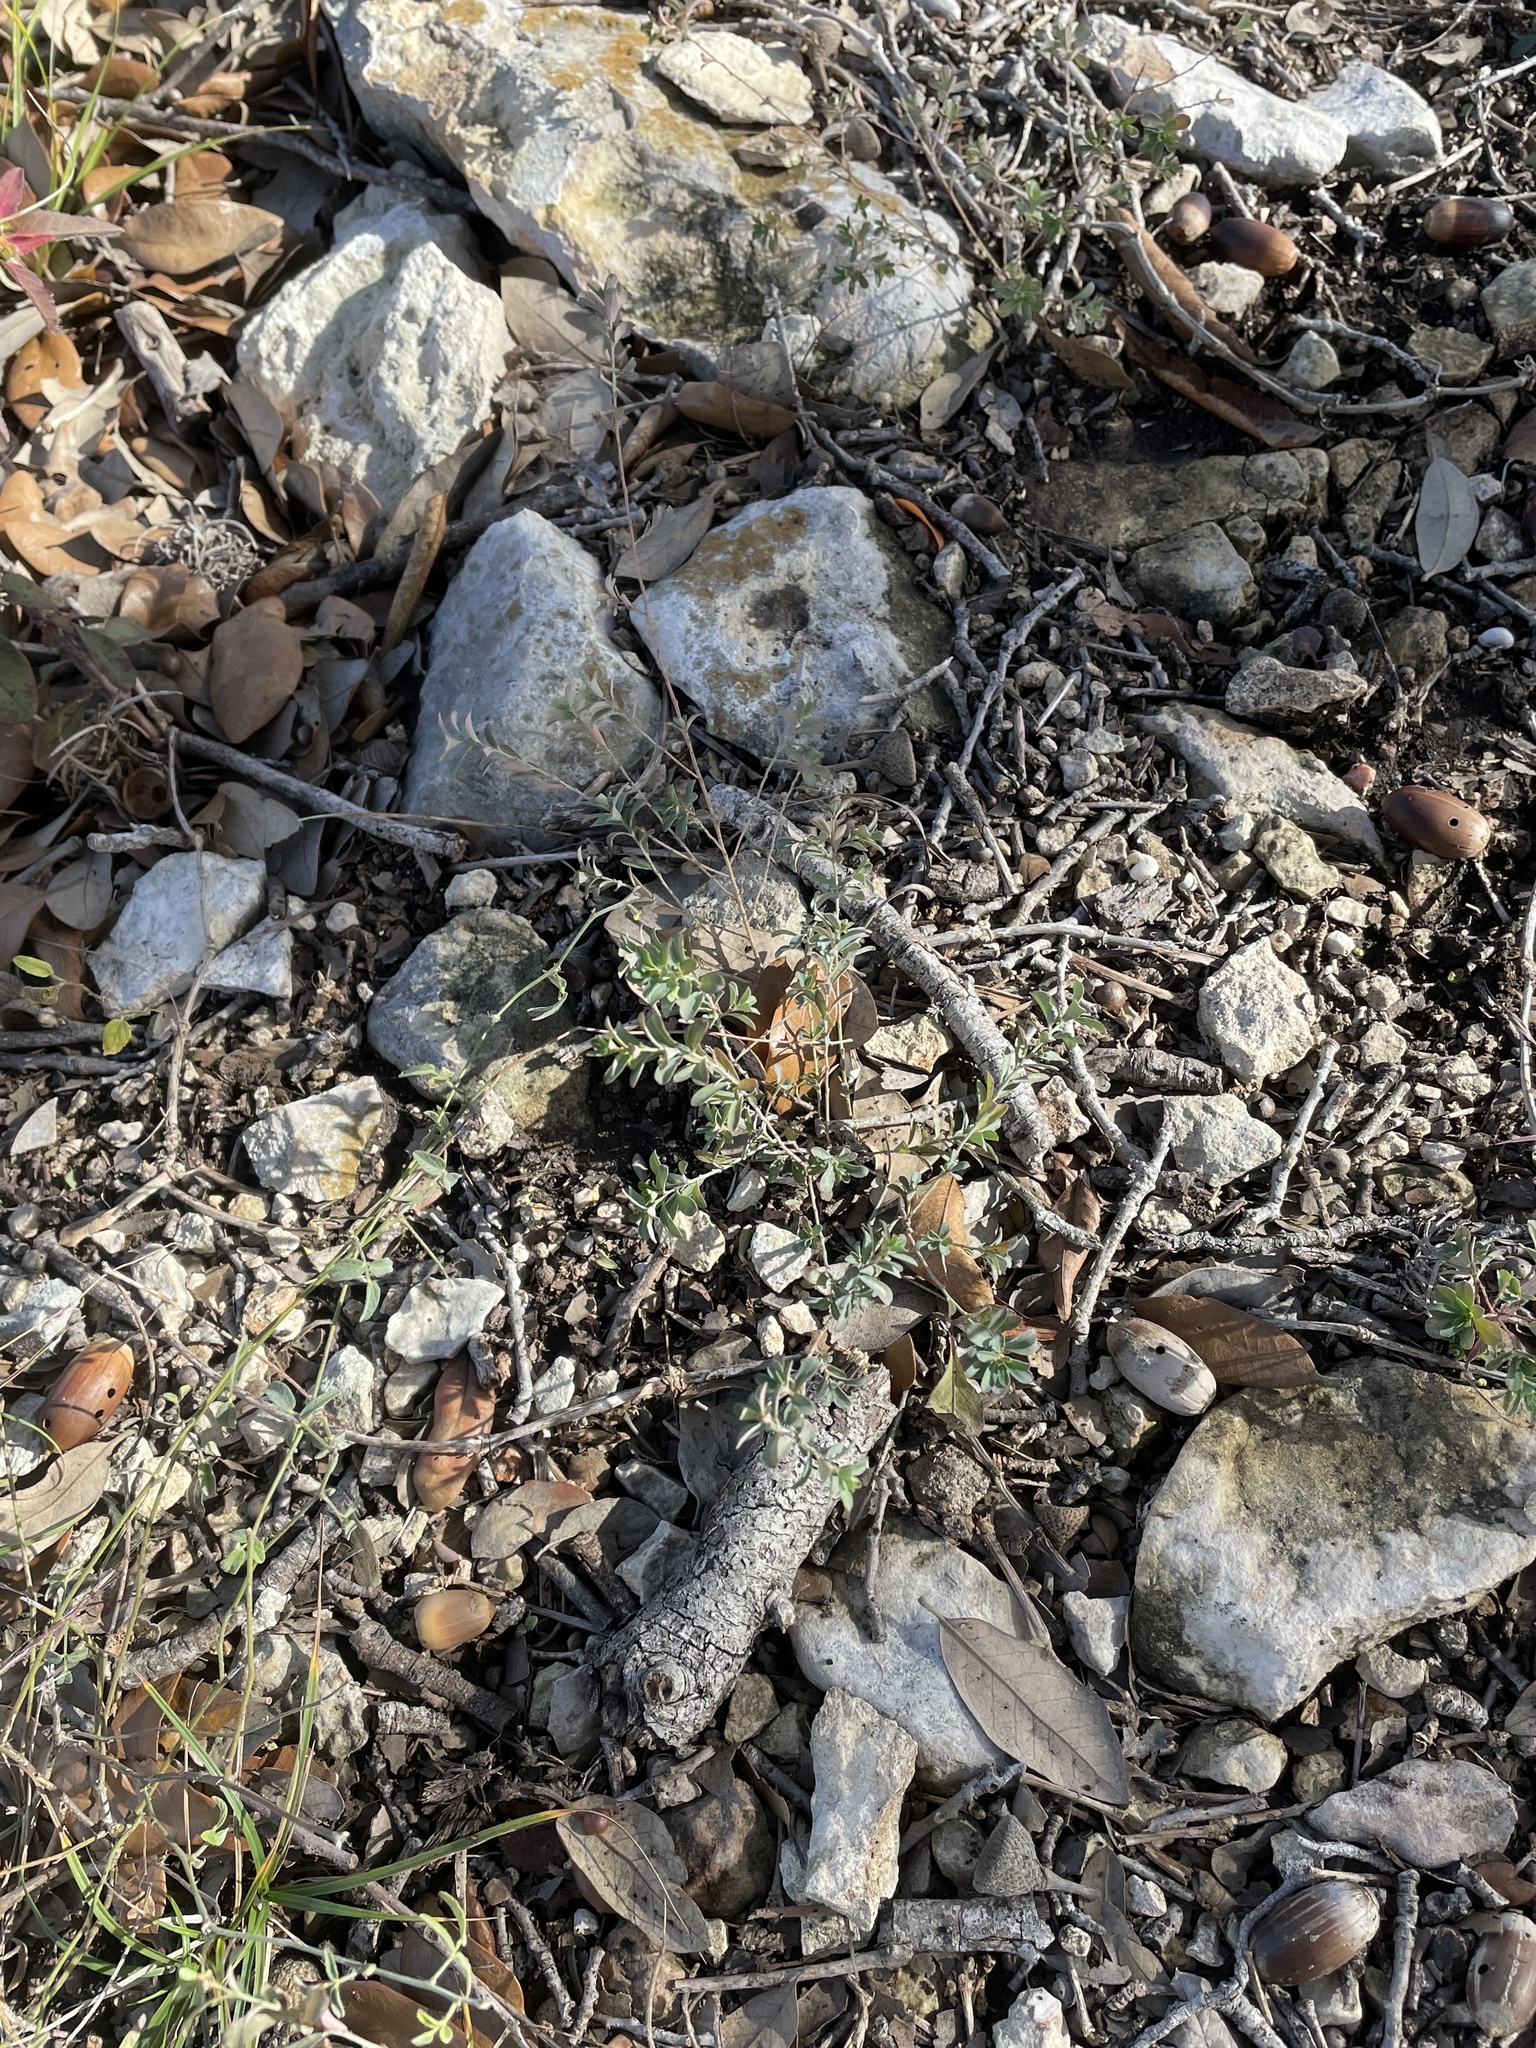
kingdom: Plantae
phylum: Tracheophyta
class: Magnoliopsida
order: Malpighiales
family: Phyllanthaceae
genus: Phyllanthus
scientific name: Phyllanthus polygonoides
